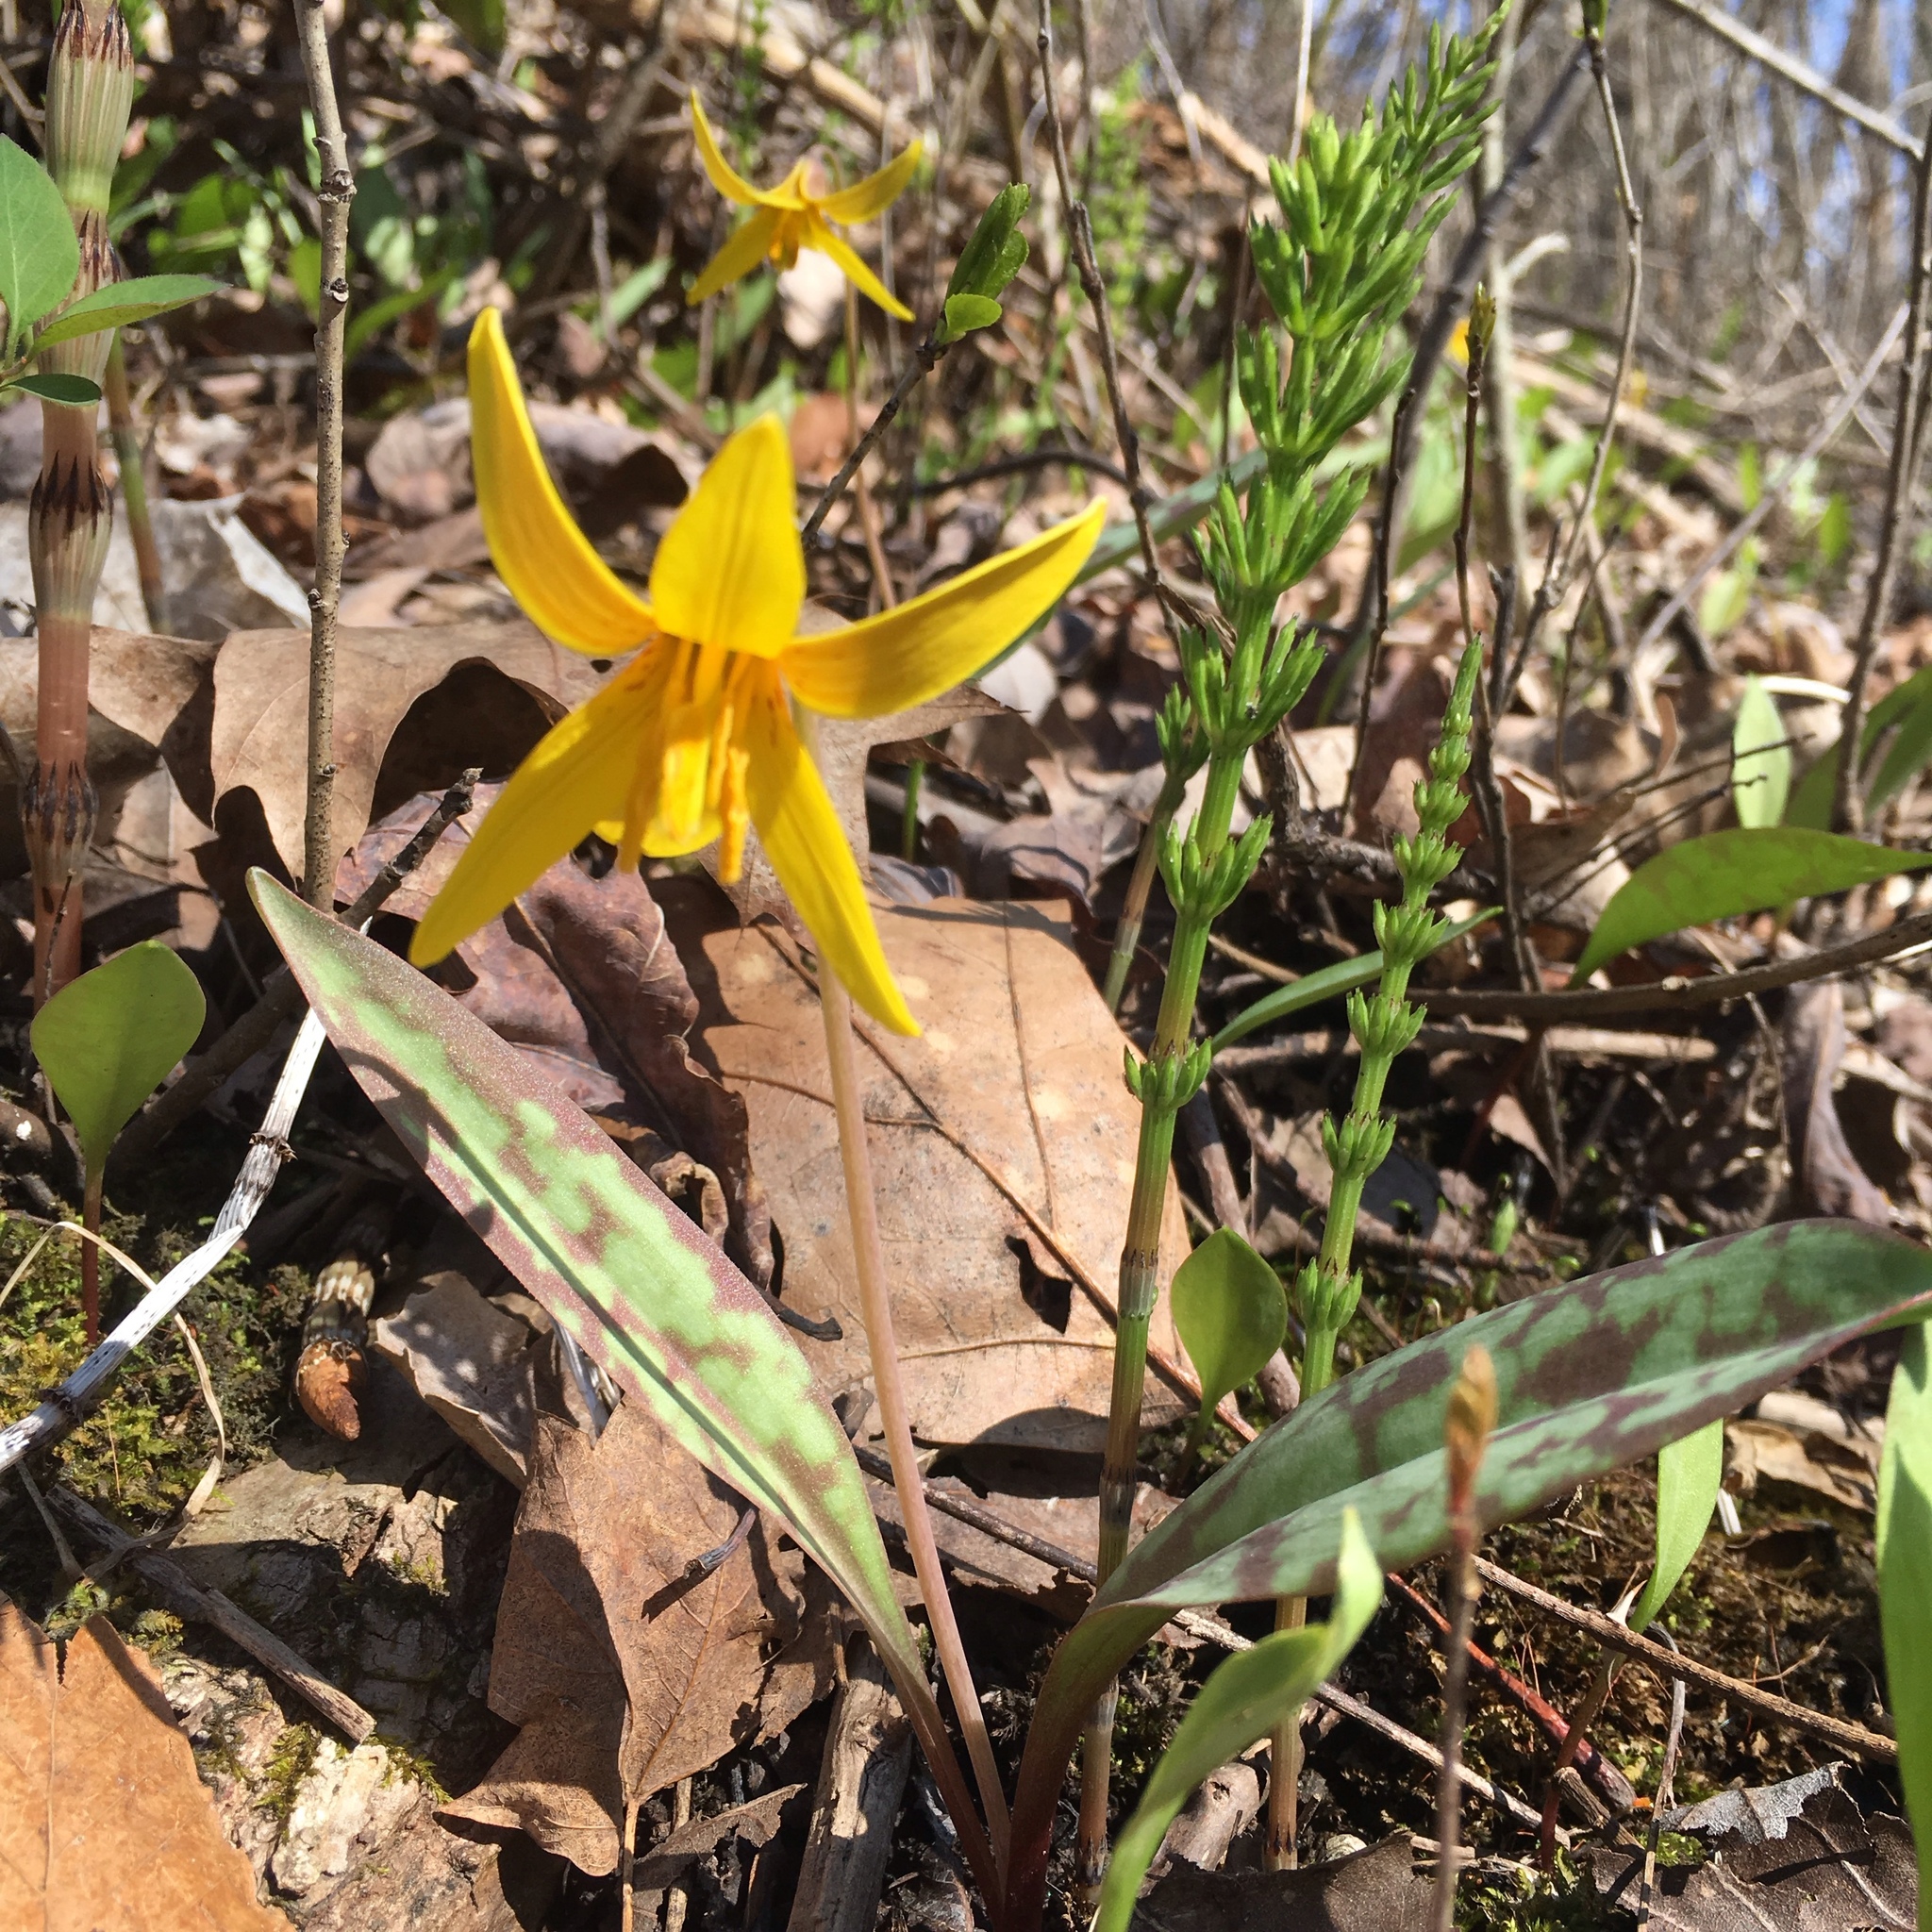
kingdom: Plantae
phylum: Tracheophyta
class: Liliopsida
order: Liliales
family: Liliaceae
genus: Erythronium
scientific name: Erythronium americanum
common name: Yellow adder's-tongue
